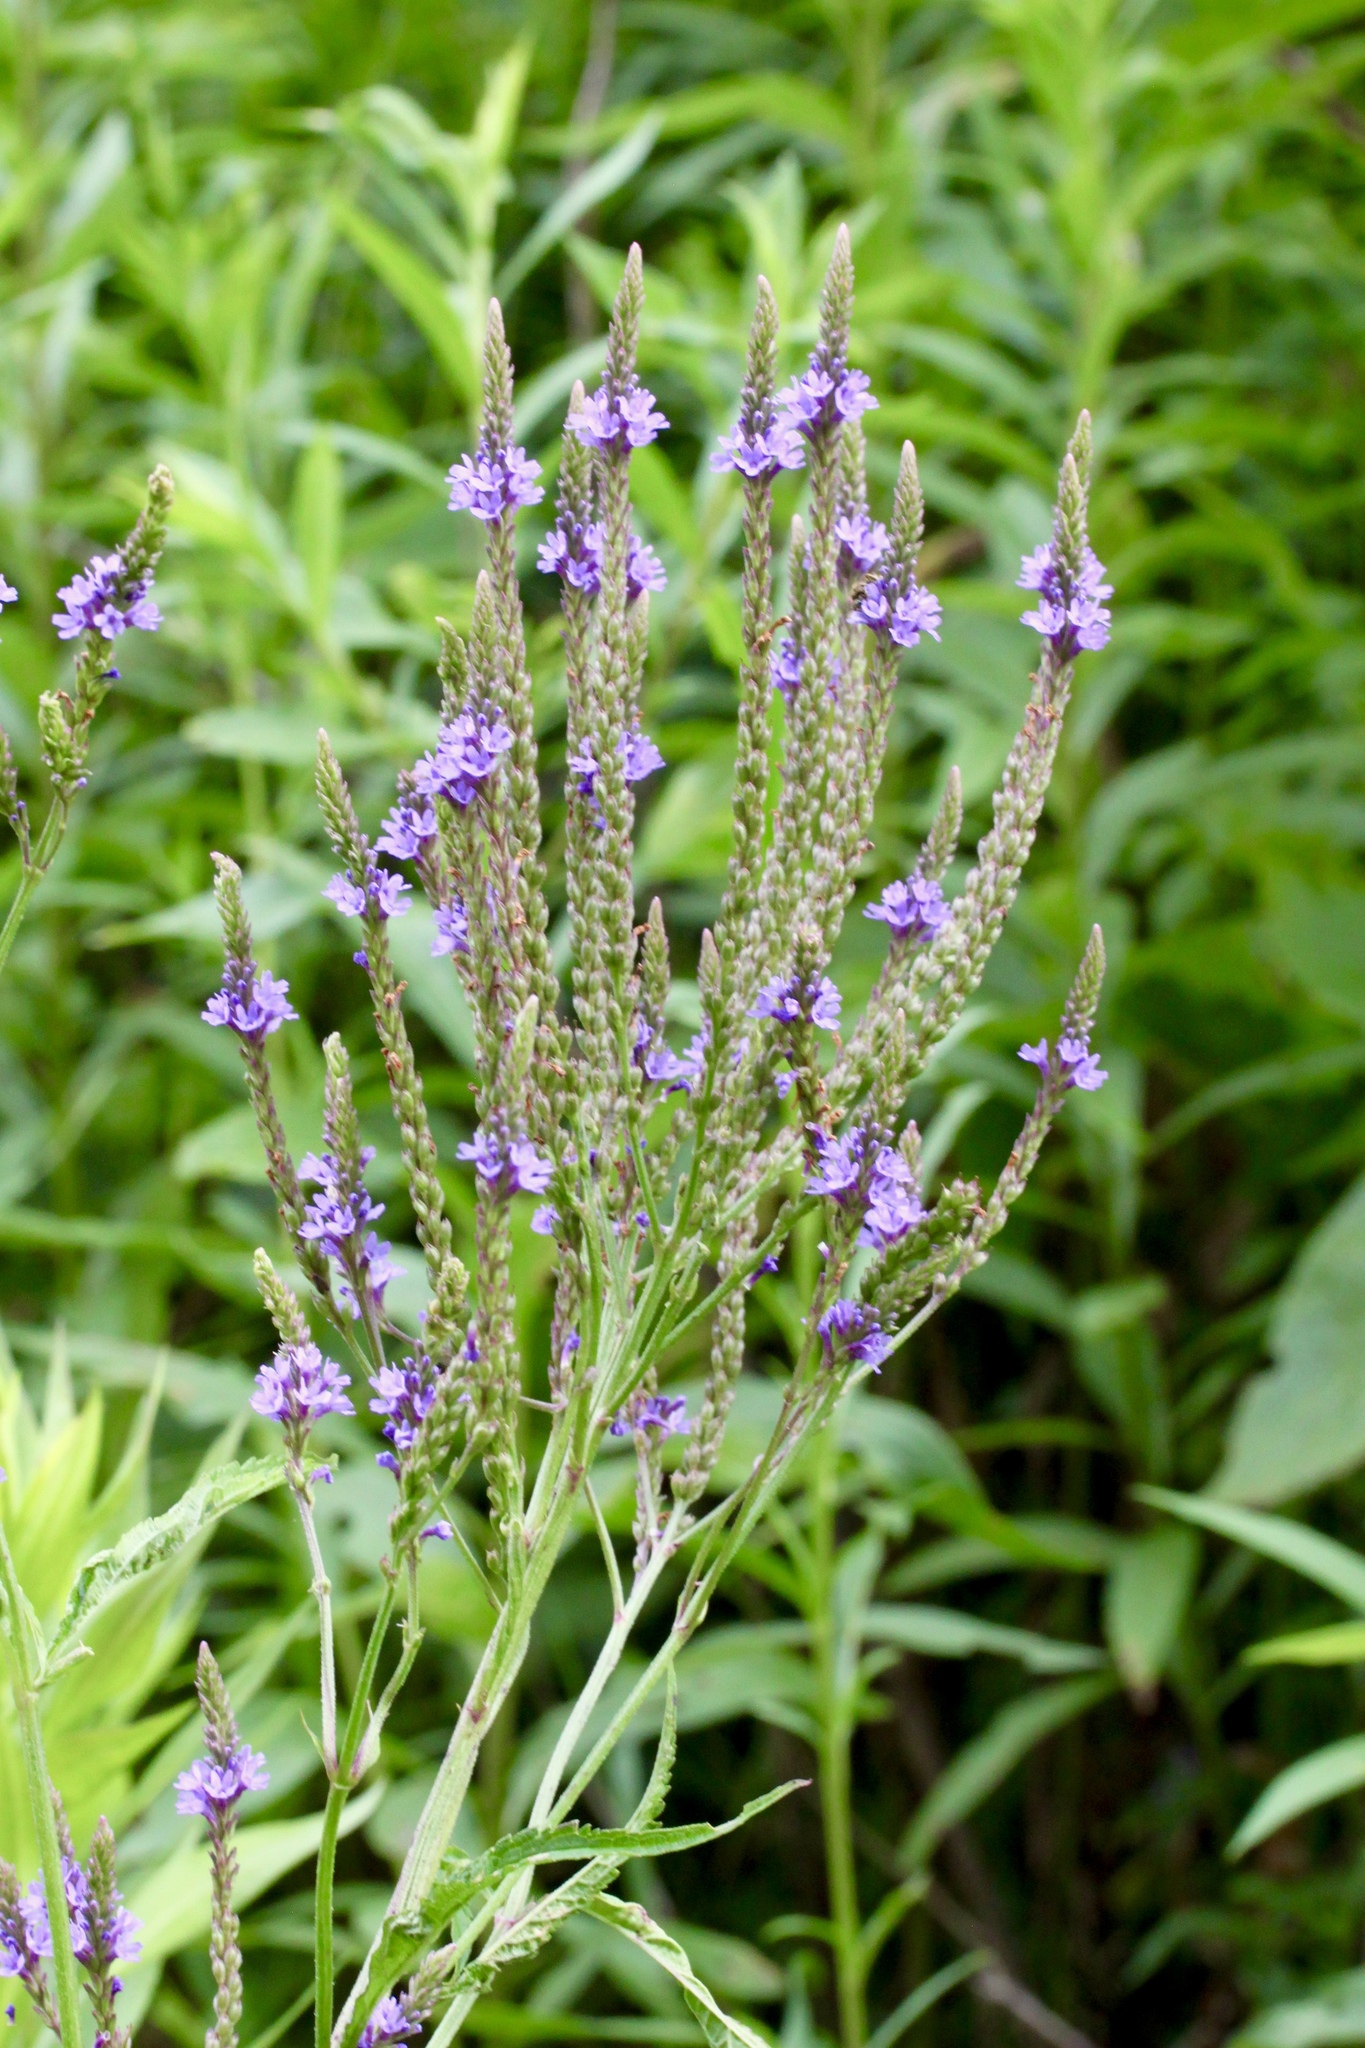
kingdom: Plantae
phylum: Tracheophyta
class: Magnoliopsida
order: Lamiales
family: Verbenaceae
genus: Verbena
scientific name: Verbena hastata
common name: American blue vervain
